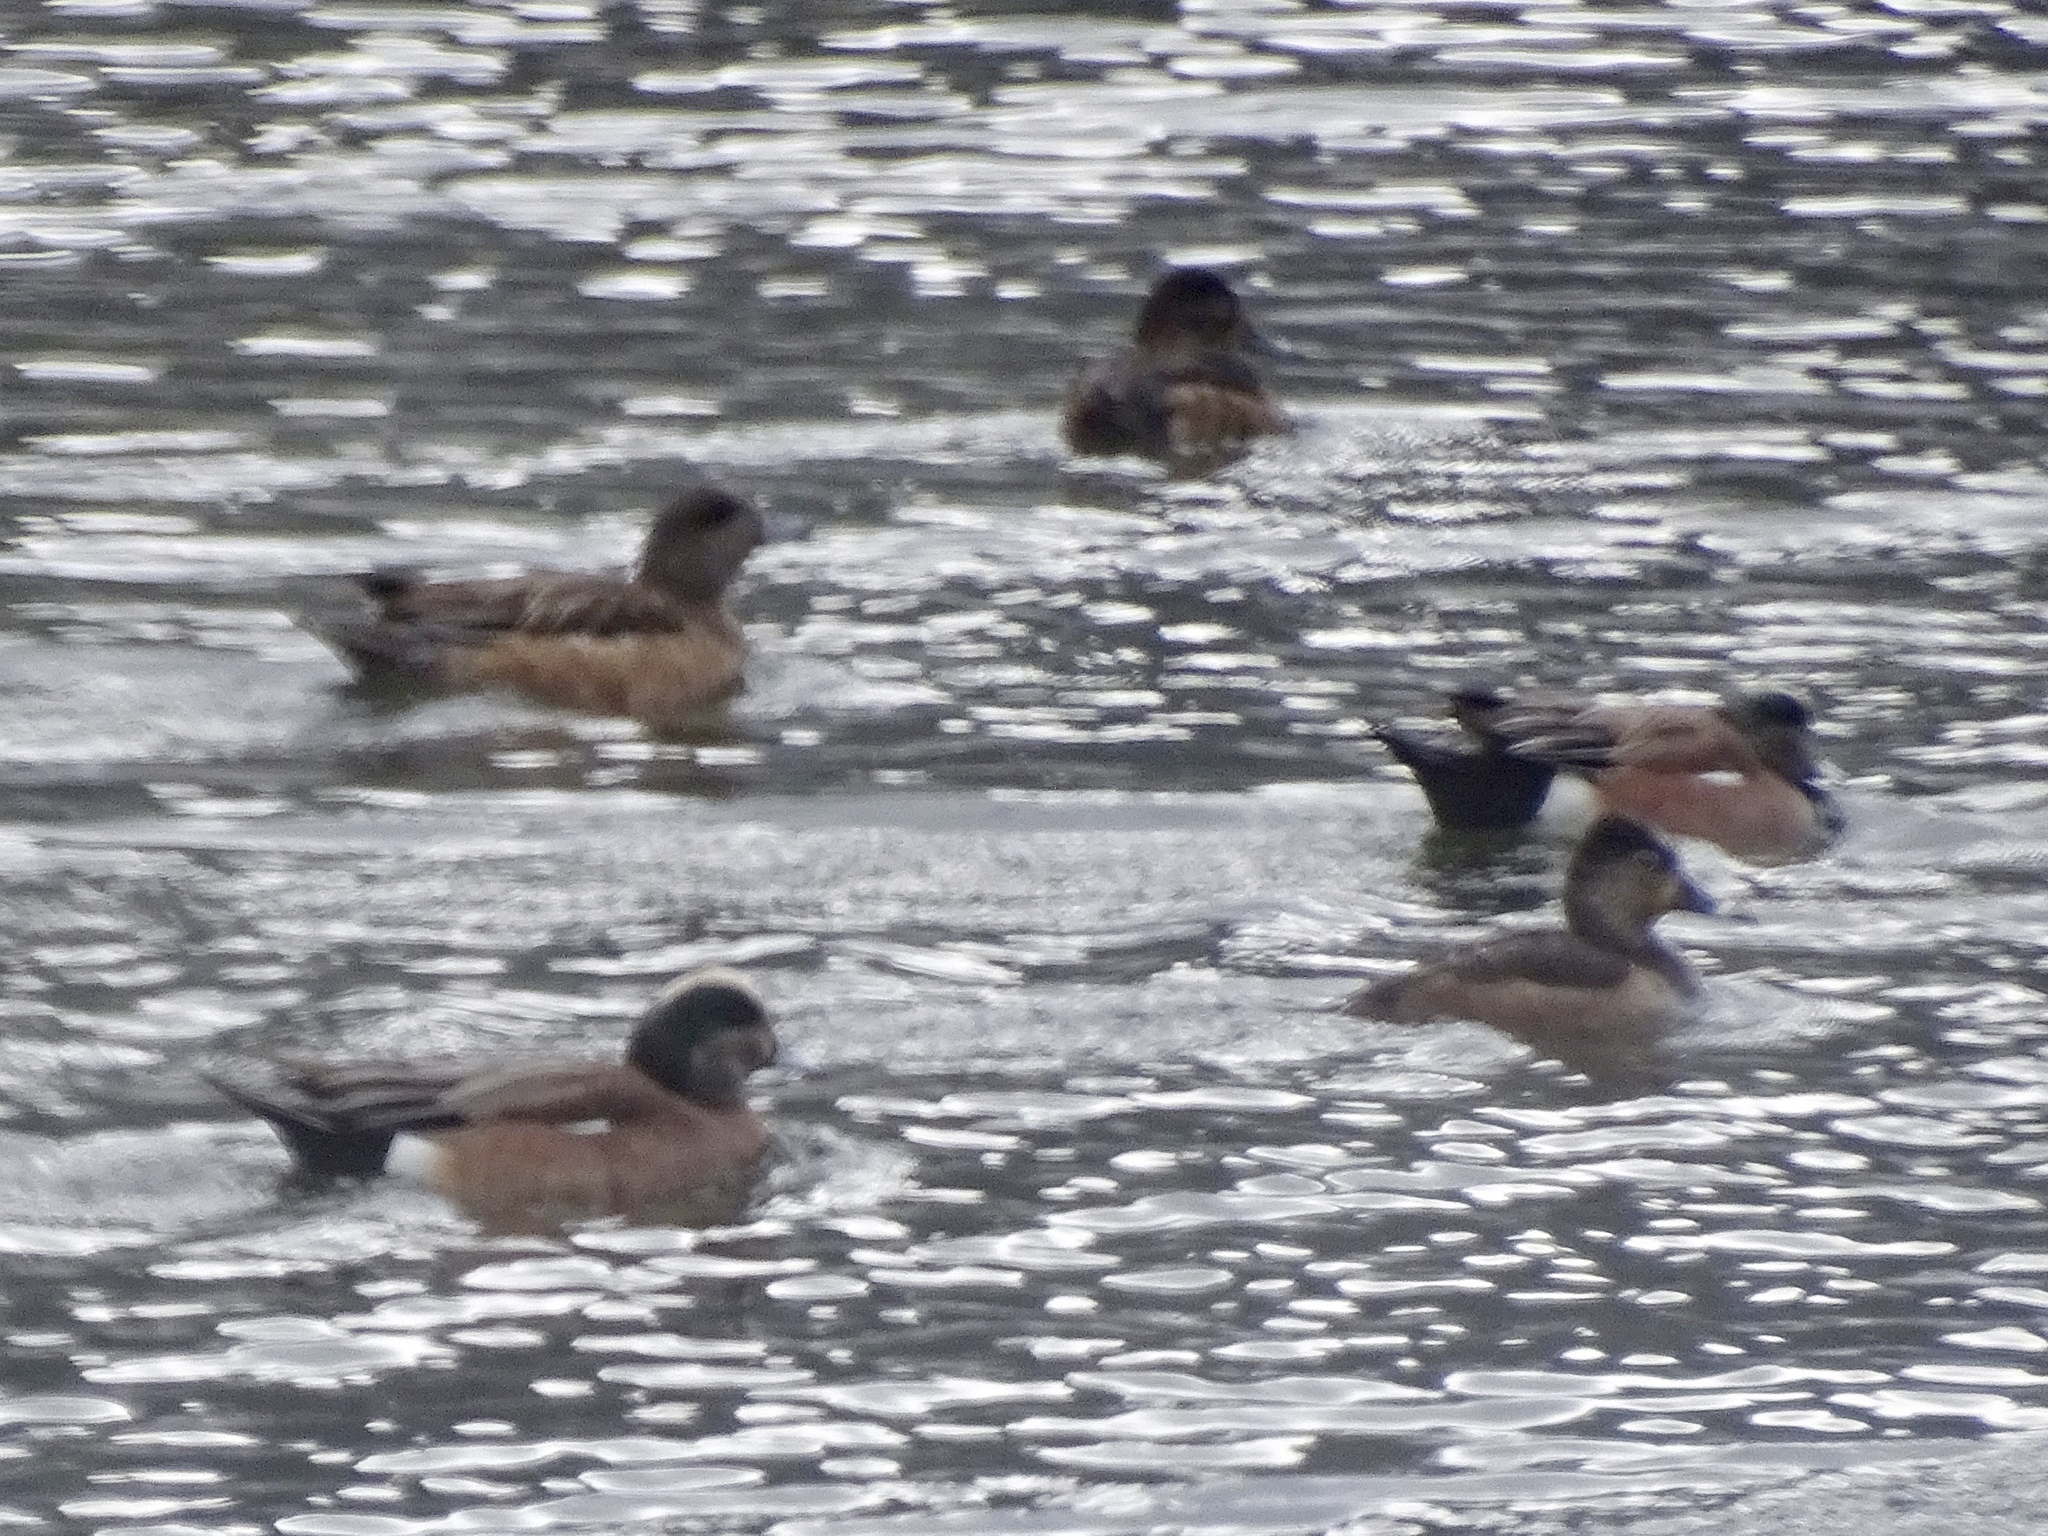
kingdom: Animalia
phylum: Chordata
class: Aves
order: Anseriformes
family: Anatidae
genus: Mareca
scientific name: Mareca americana
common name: American wigeon
